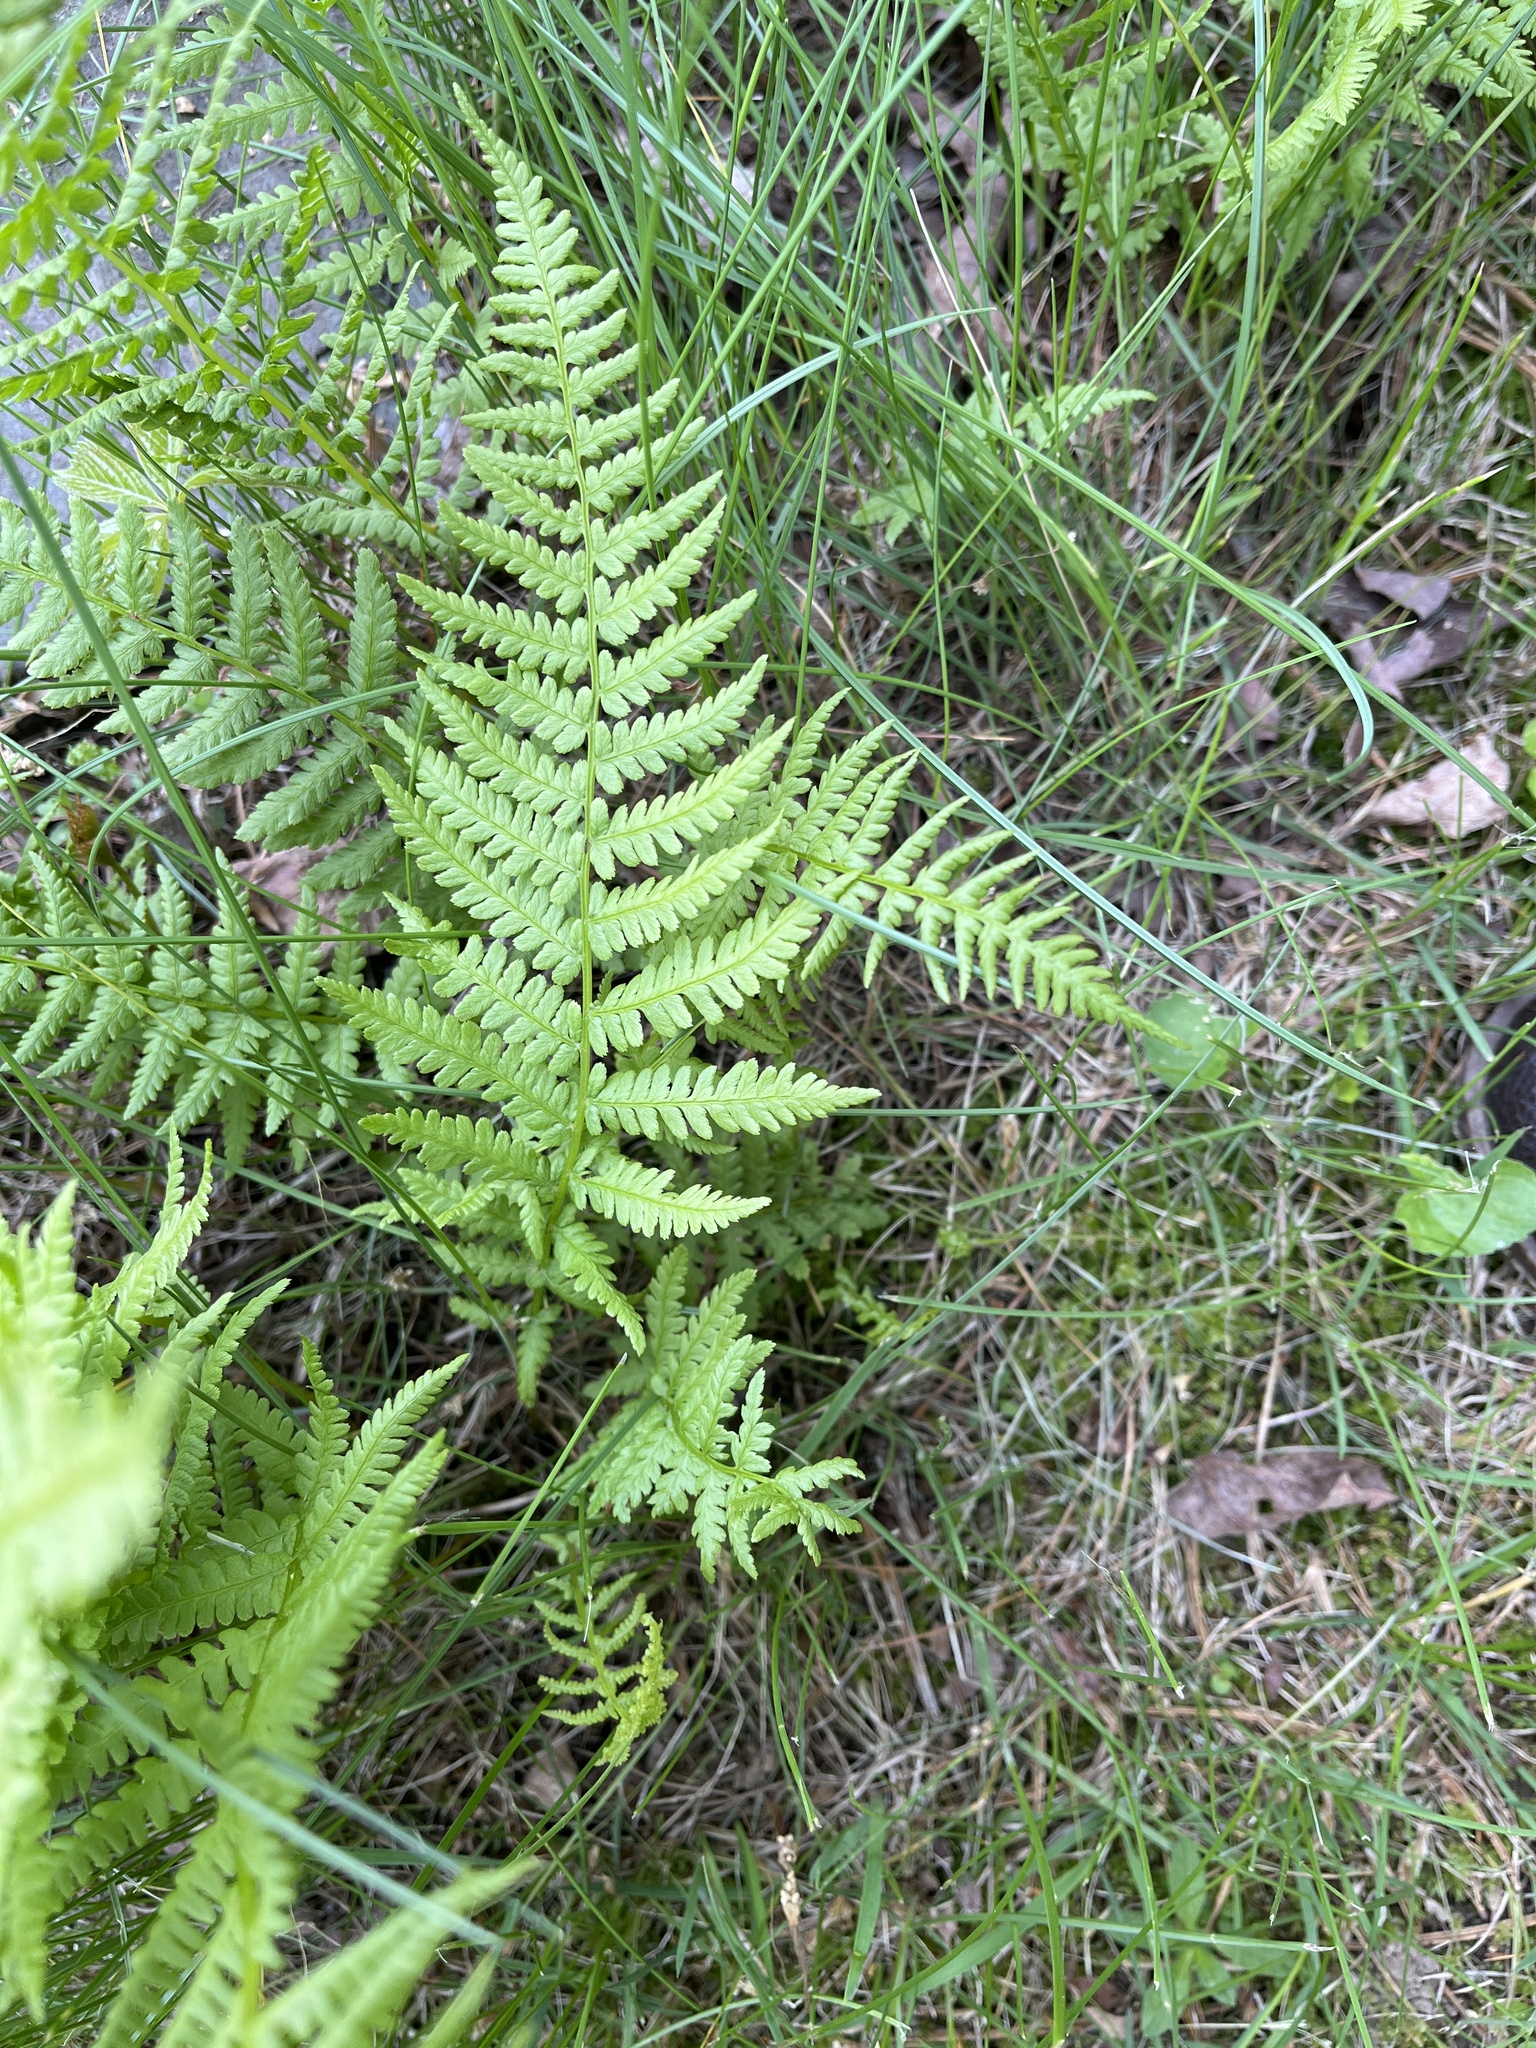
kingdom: Plantae
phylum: Tracheophyta
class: Polypodiopsida
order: Polypodiales
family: Athyriaceae
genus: Athyrium
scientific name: Athyrium angustum
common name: Northern lady fern
